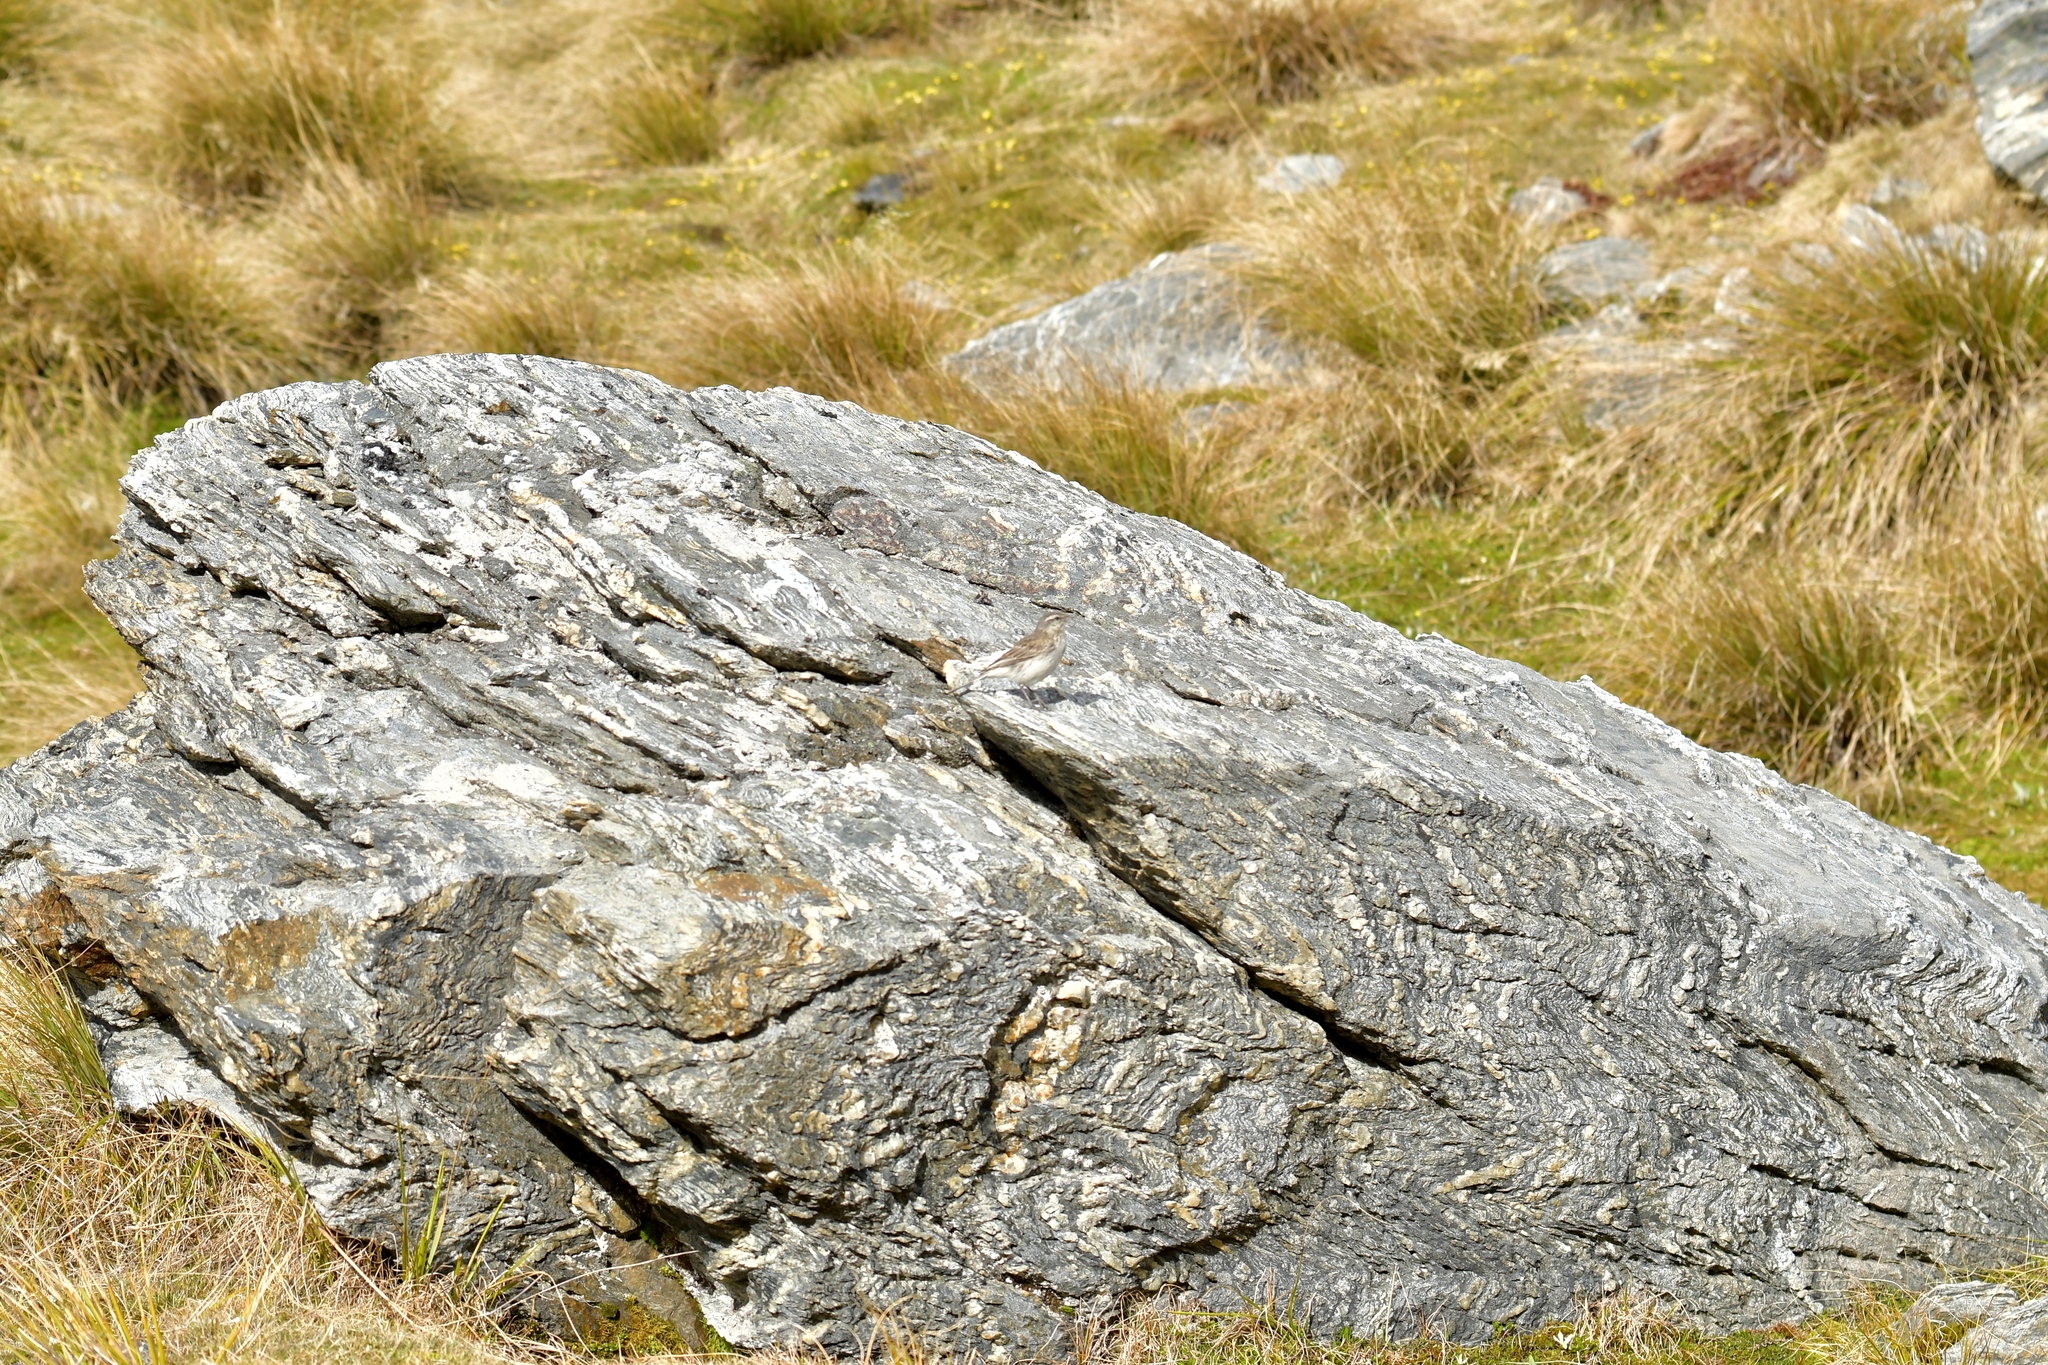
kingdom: Animalia
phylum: Chordata
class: Aves
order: Passeriformes
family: Motacillidae
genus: Anthus
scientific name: Anthus novaeseelandiae
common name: New zealand pipit
